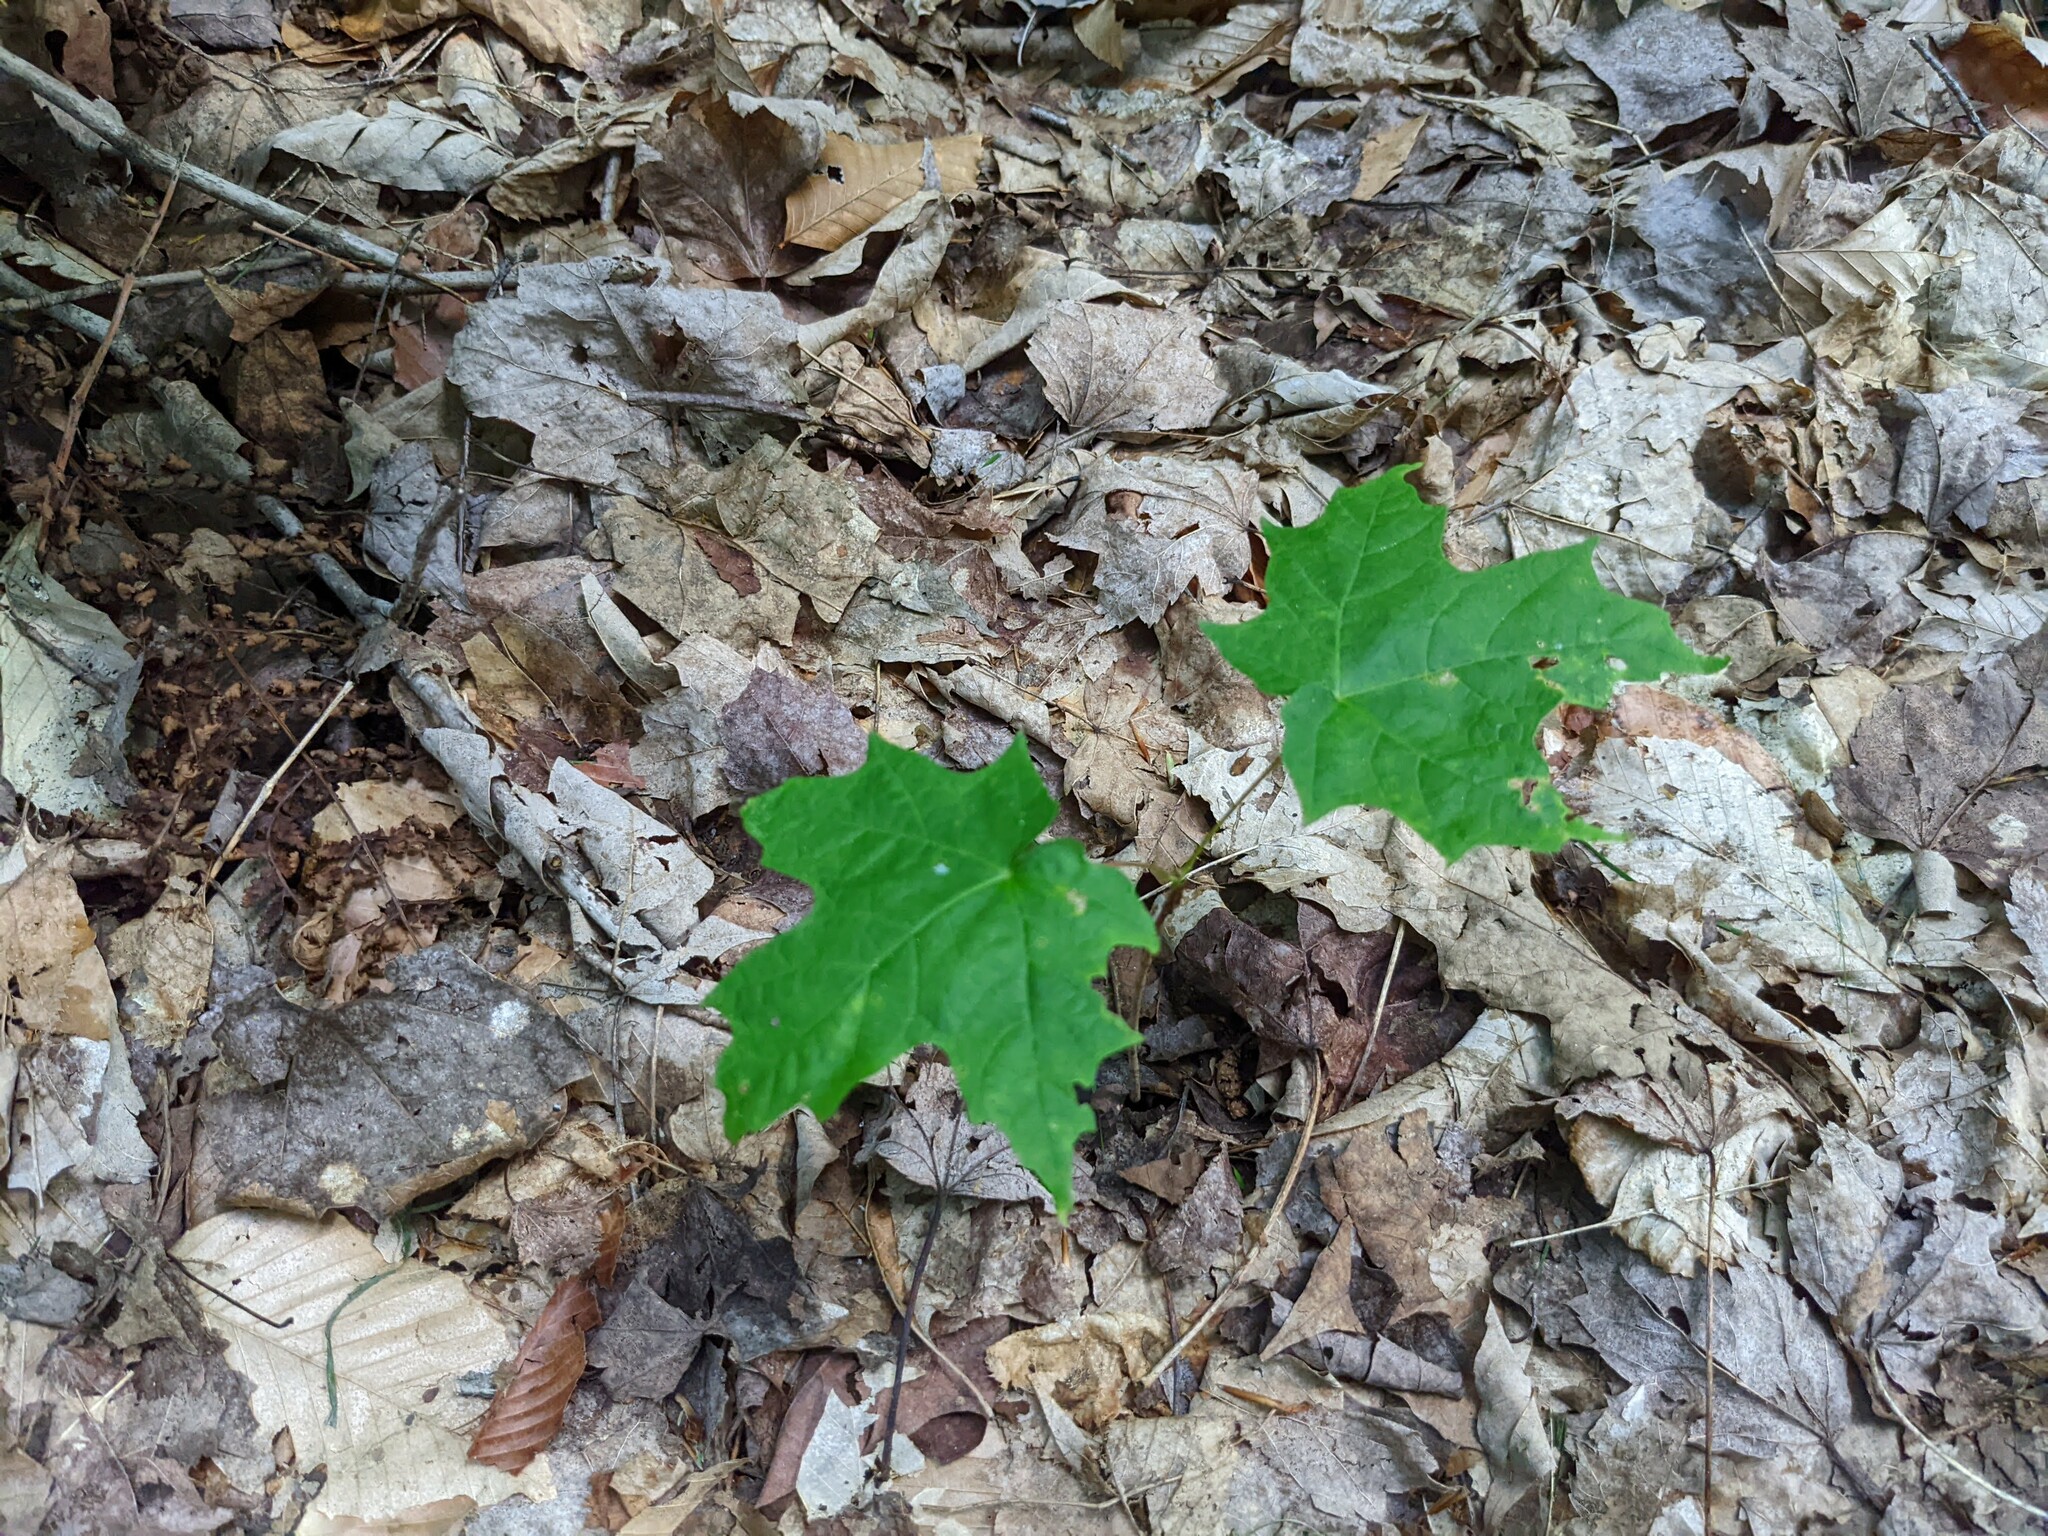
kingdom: Plantae
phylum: Tracheophyta
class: Magnoliopsida
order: Sapindales
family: Sapindaceae
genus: Acer
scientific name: Acer saccharum
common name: Sugar maple
